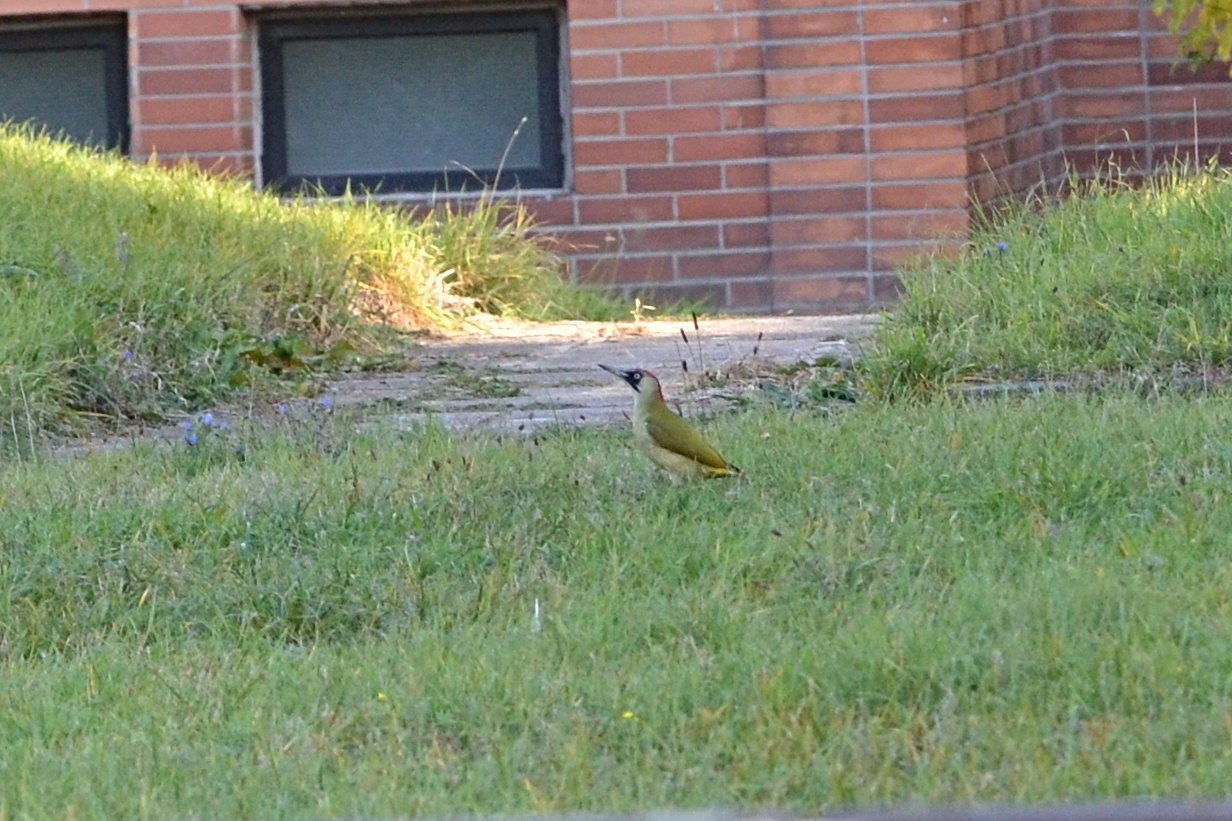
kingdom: Animalia
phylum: Chordata
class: Aves
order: Piciformes
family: Picidae
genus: Picus
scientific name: Picus viridis
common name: European green woodpecker
